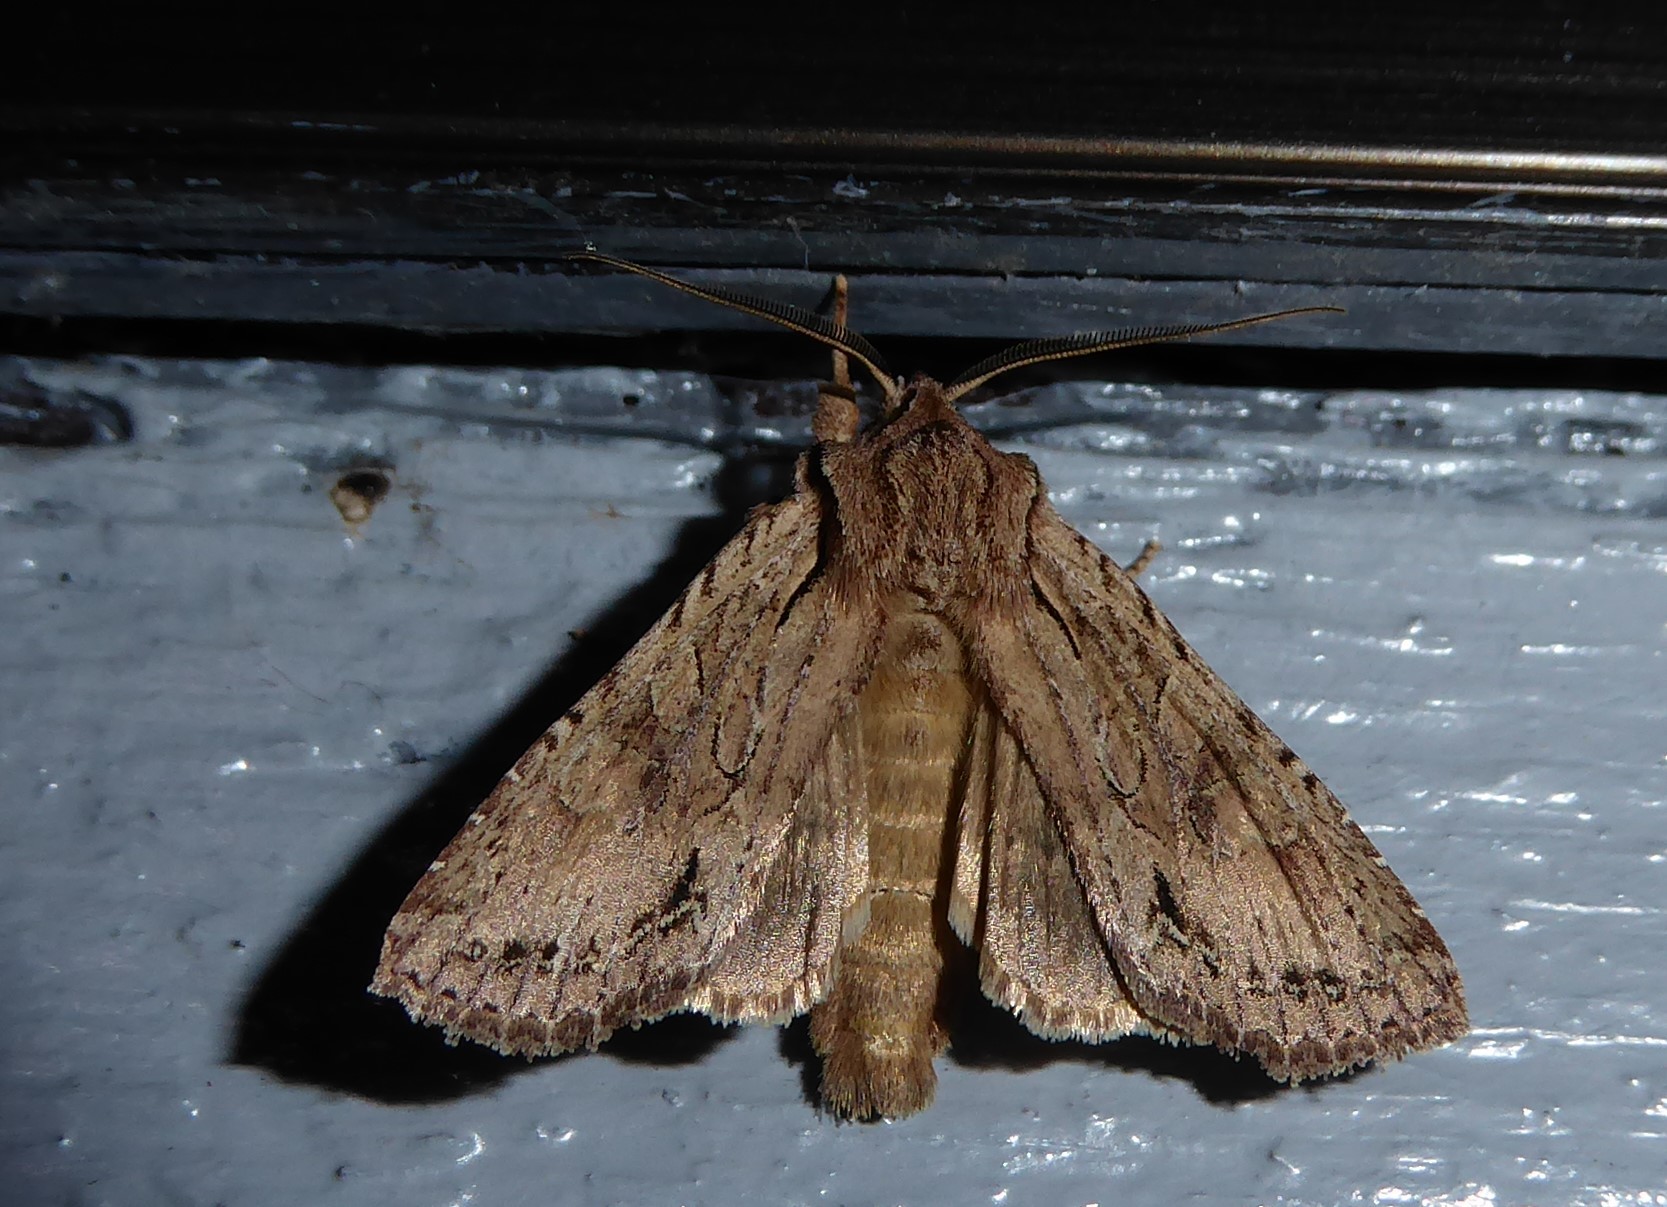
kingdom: Animalia
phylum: Arthropoda
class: Insecta
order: Lepidoptera
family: Noctuidae
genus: Ichneutica
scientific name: Ichneutica
